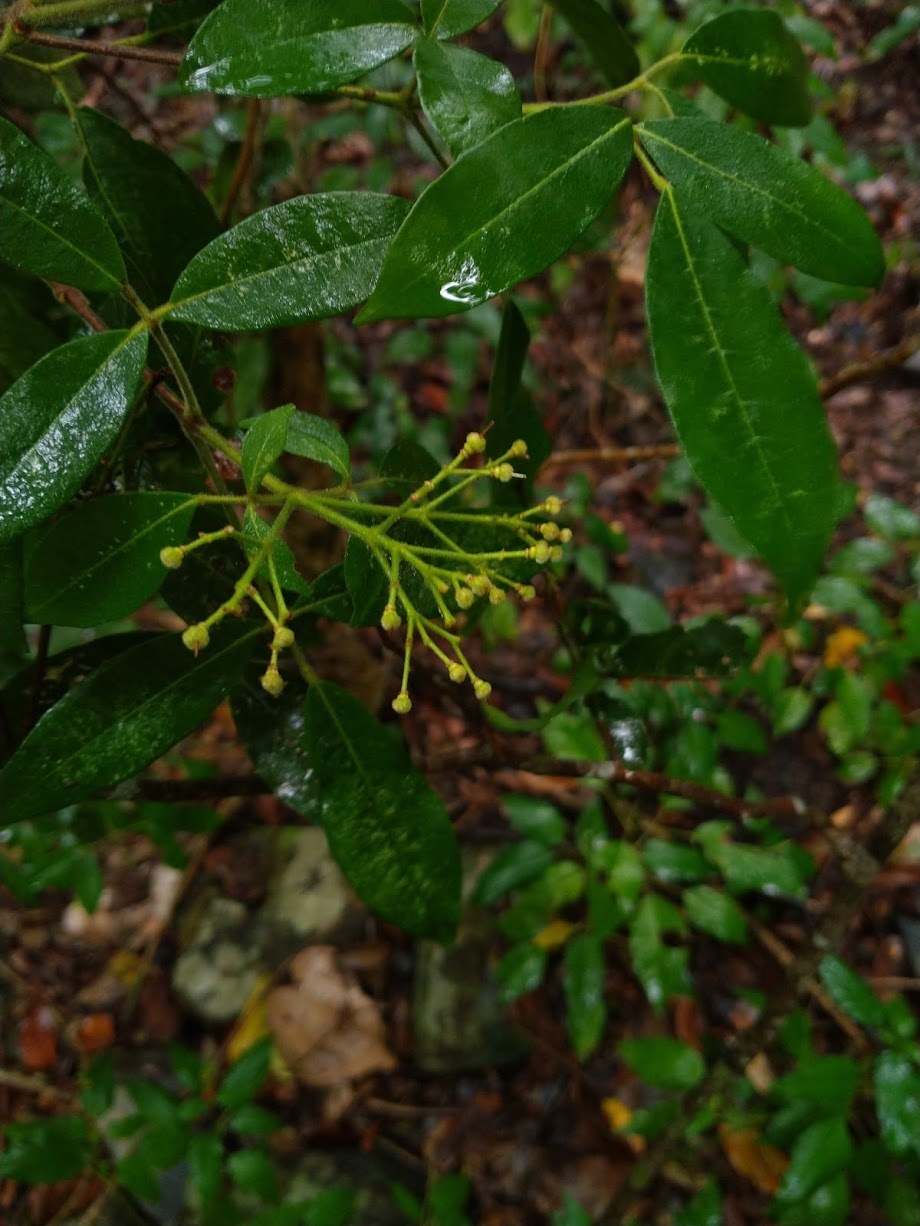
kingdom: Plantae
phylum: Tracheophyta
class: Magnoliopsida
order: Sapindales
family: Rutaceae
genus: Bouchardatia
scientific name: Bouchardatia neurococca
